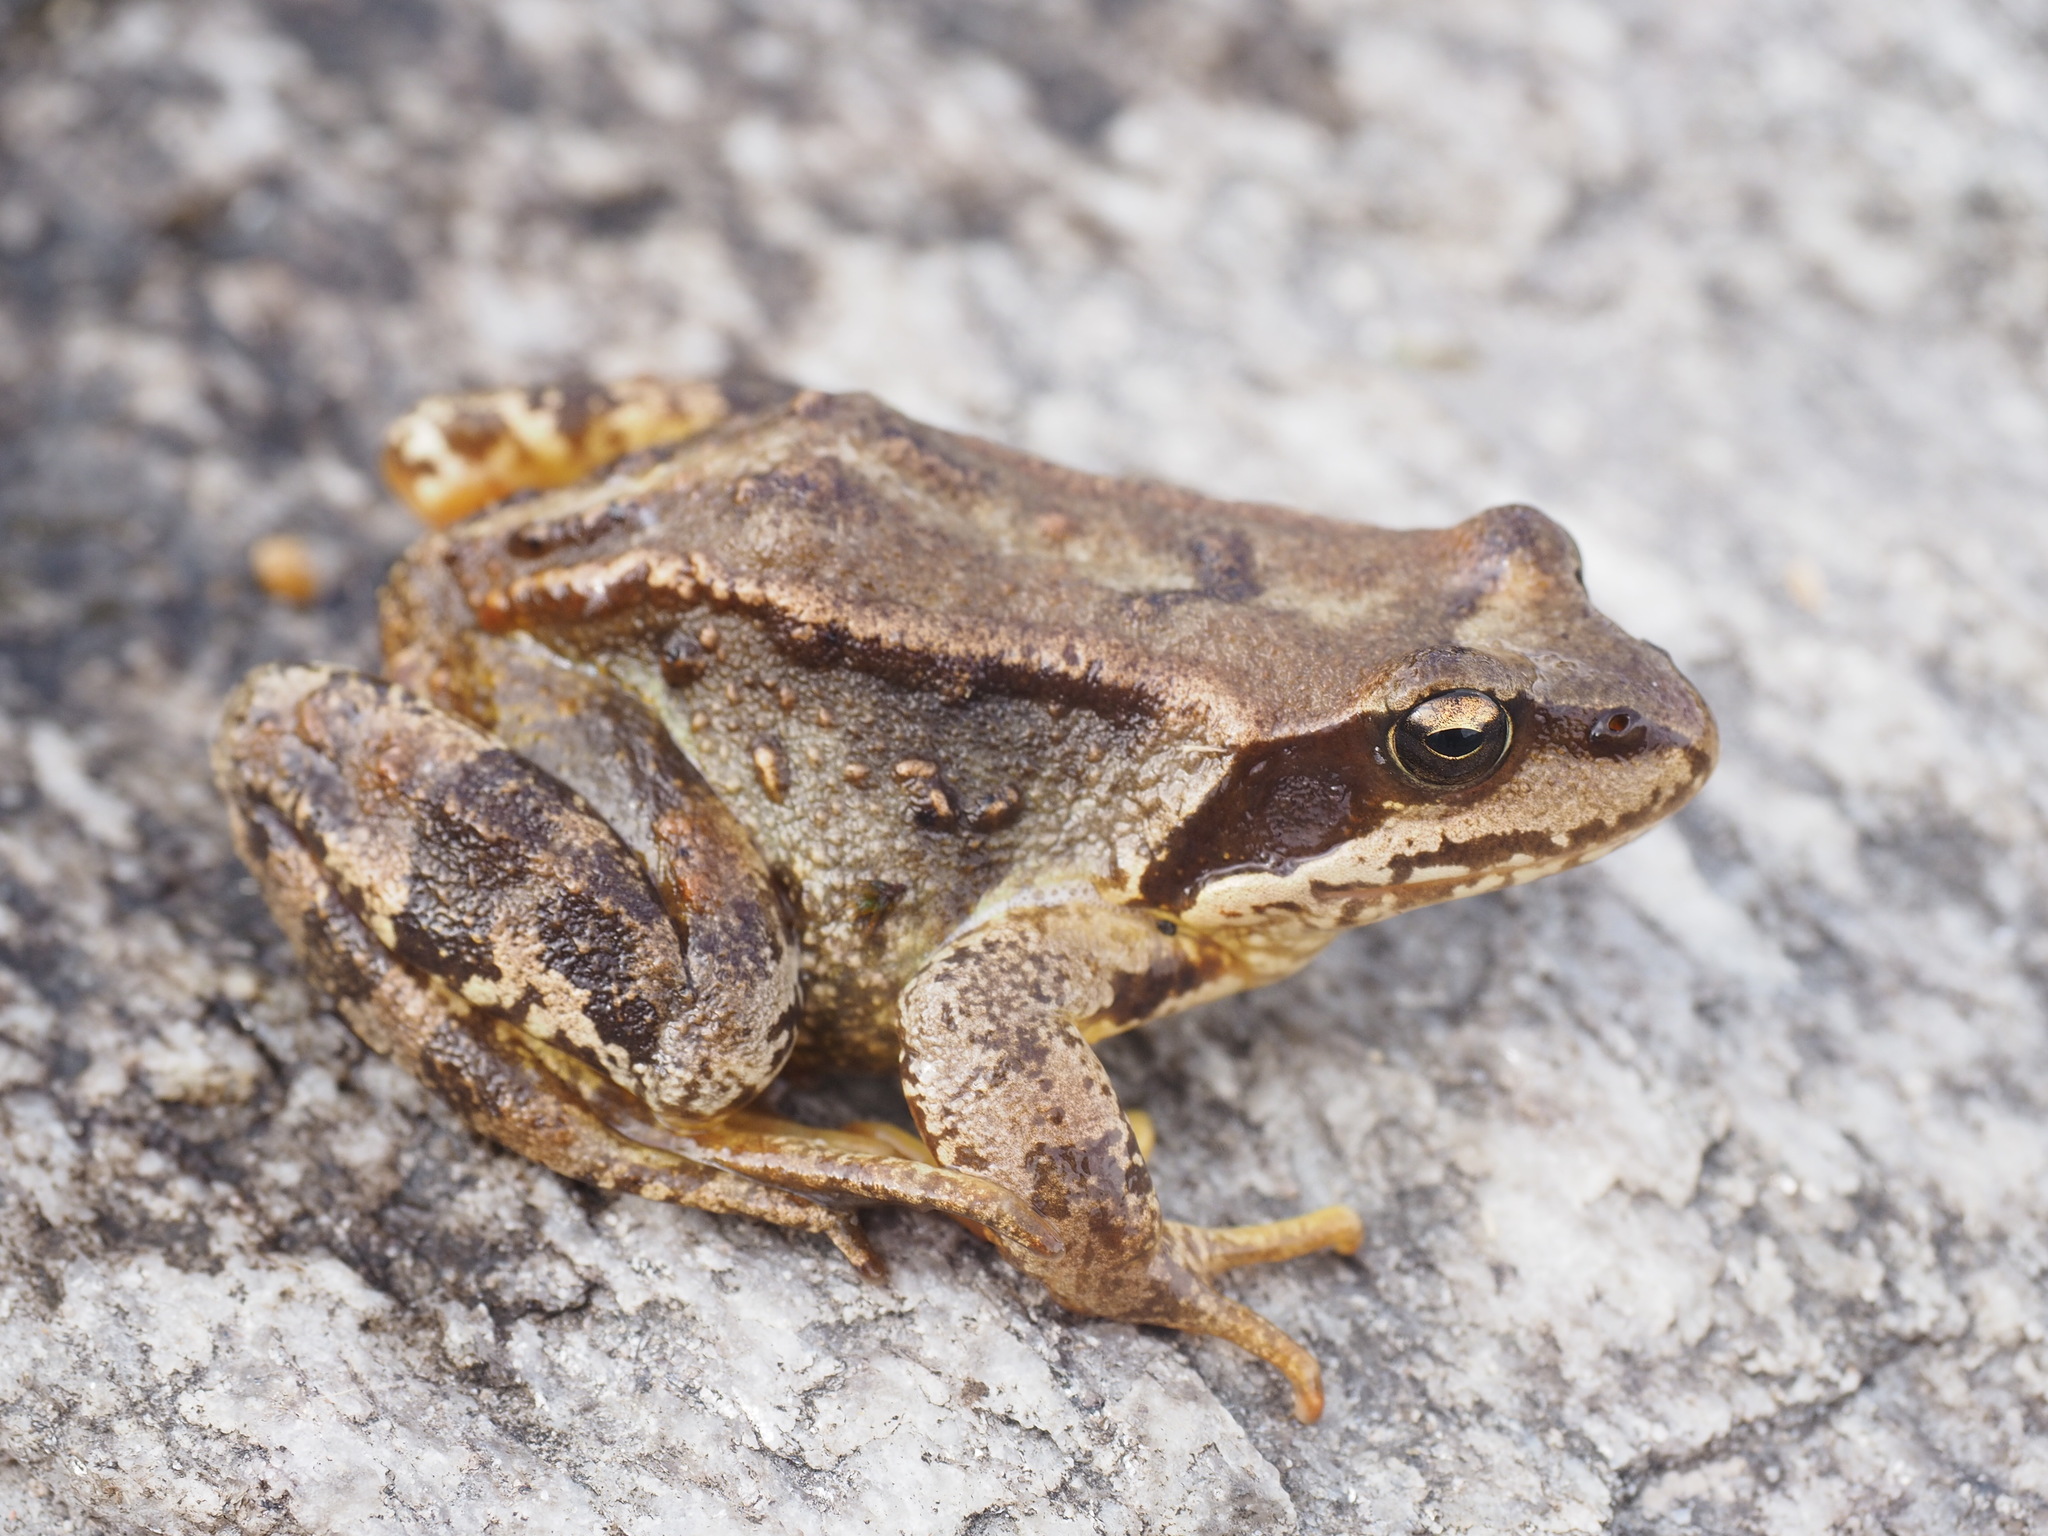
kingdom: Animalia
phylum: Chordata
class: Amphibia
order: Anura
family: Ranidae
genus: Rana
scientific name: Rana temporaria
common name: Common frog
